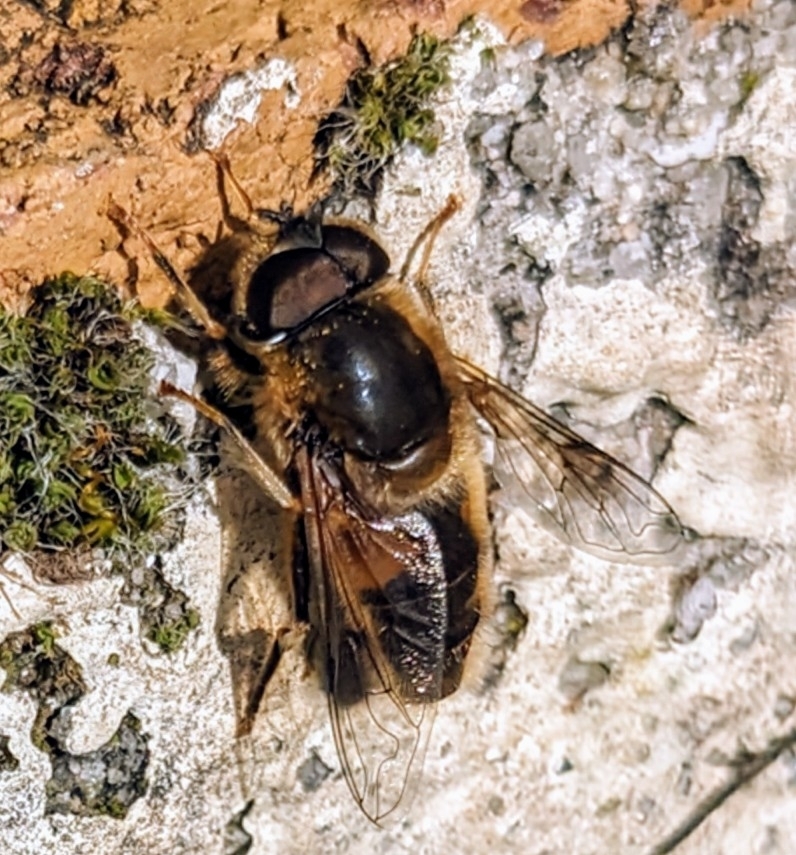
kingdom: Animalia
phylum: Arthropoda
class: Insecta
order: Diptera
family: Syrphidae
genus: Eristalis
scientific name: Eristalis pertinax
